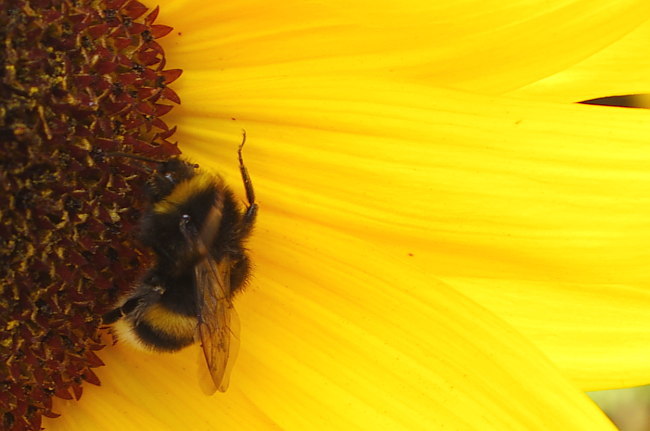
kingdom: Animalia
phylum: Arthropoda
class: Insecta
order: Hymenoptera
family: Apidae
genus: Bombus
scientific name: Bombus
